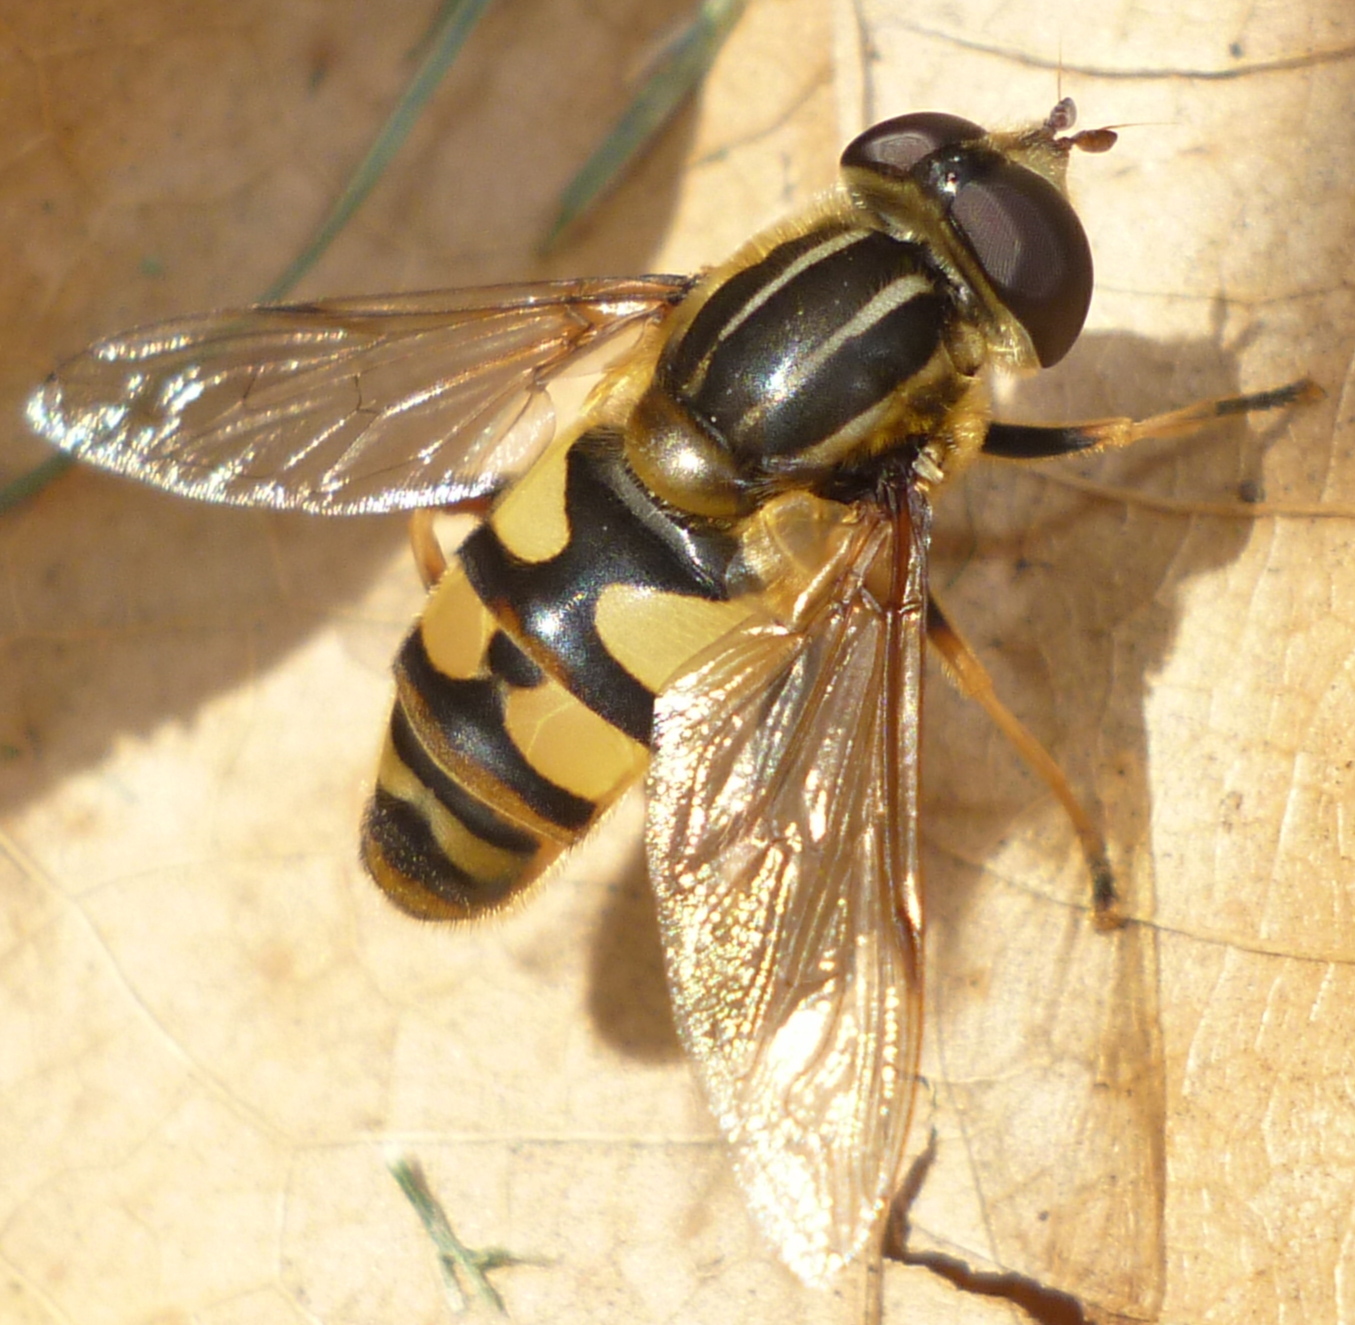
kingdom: Animalia
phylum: Arthropoda
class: Insecta
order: Diptera
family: Syrphidae
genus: Helophilus
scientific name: Helophilus fasciatus
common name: Narrow-headed marsh fly
